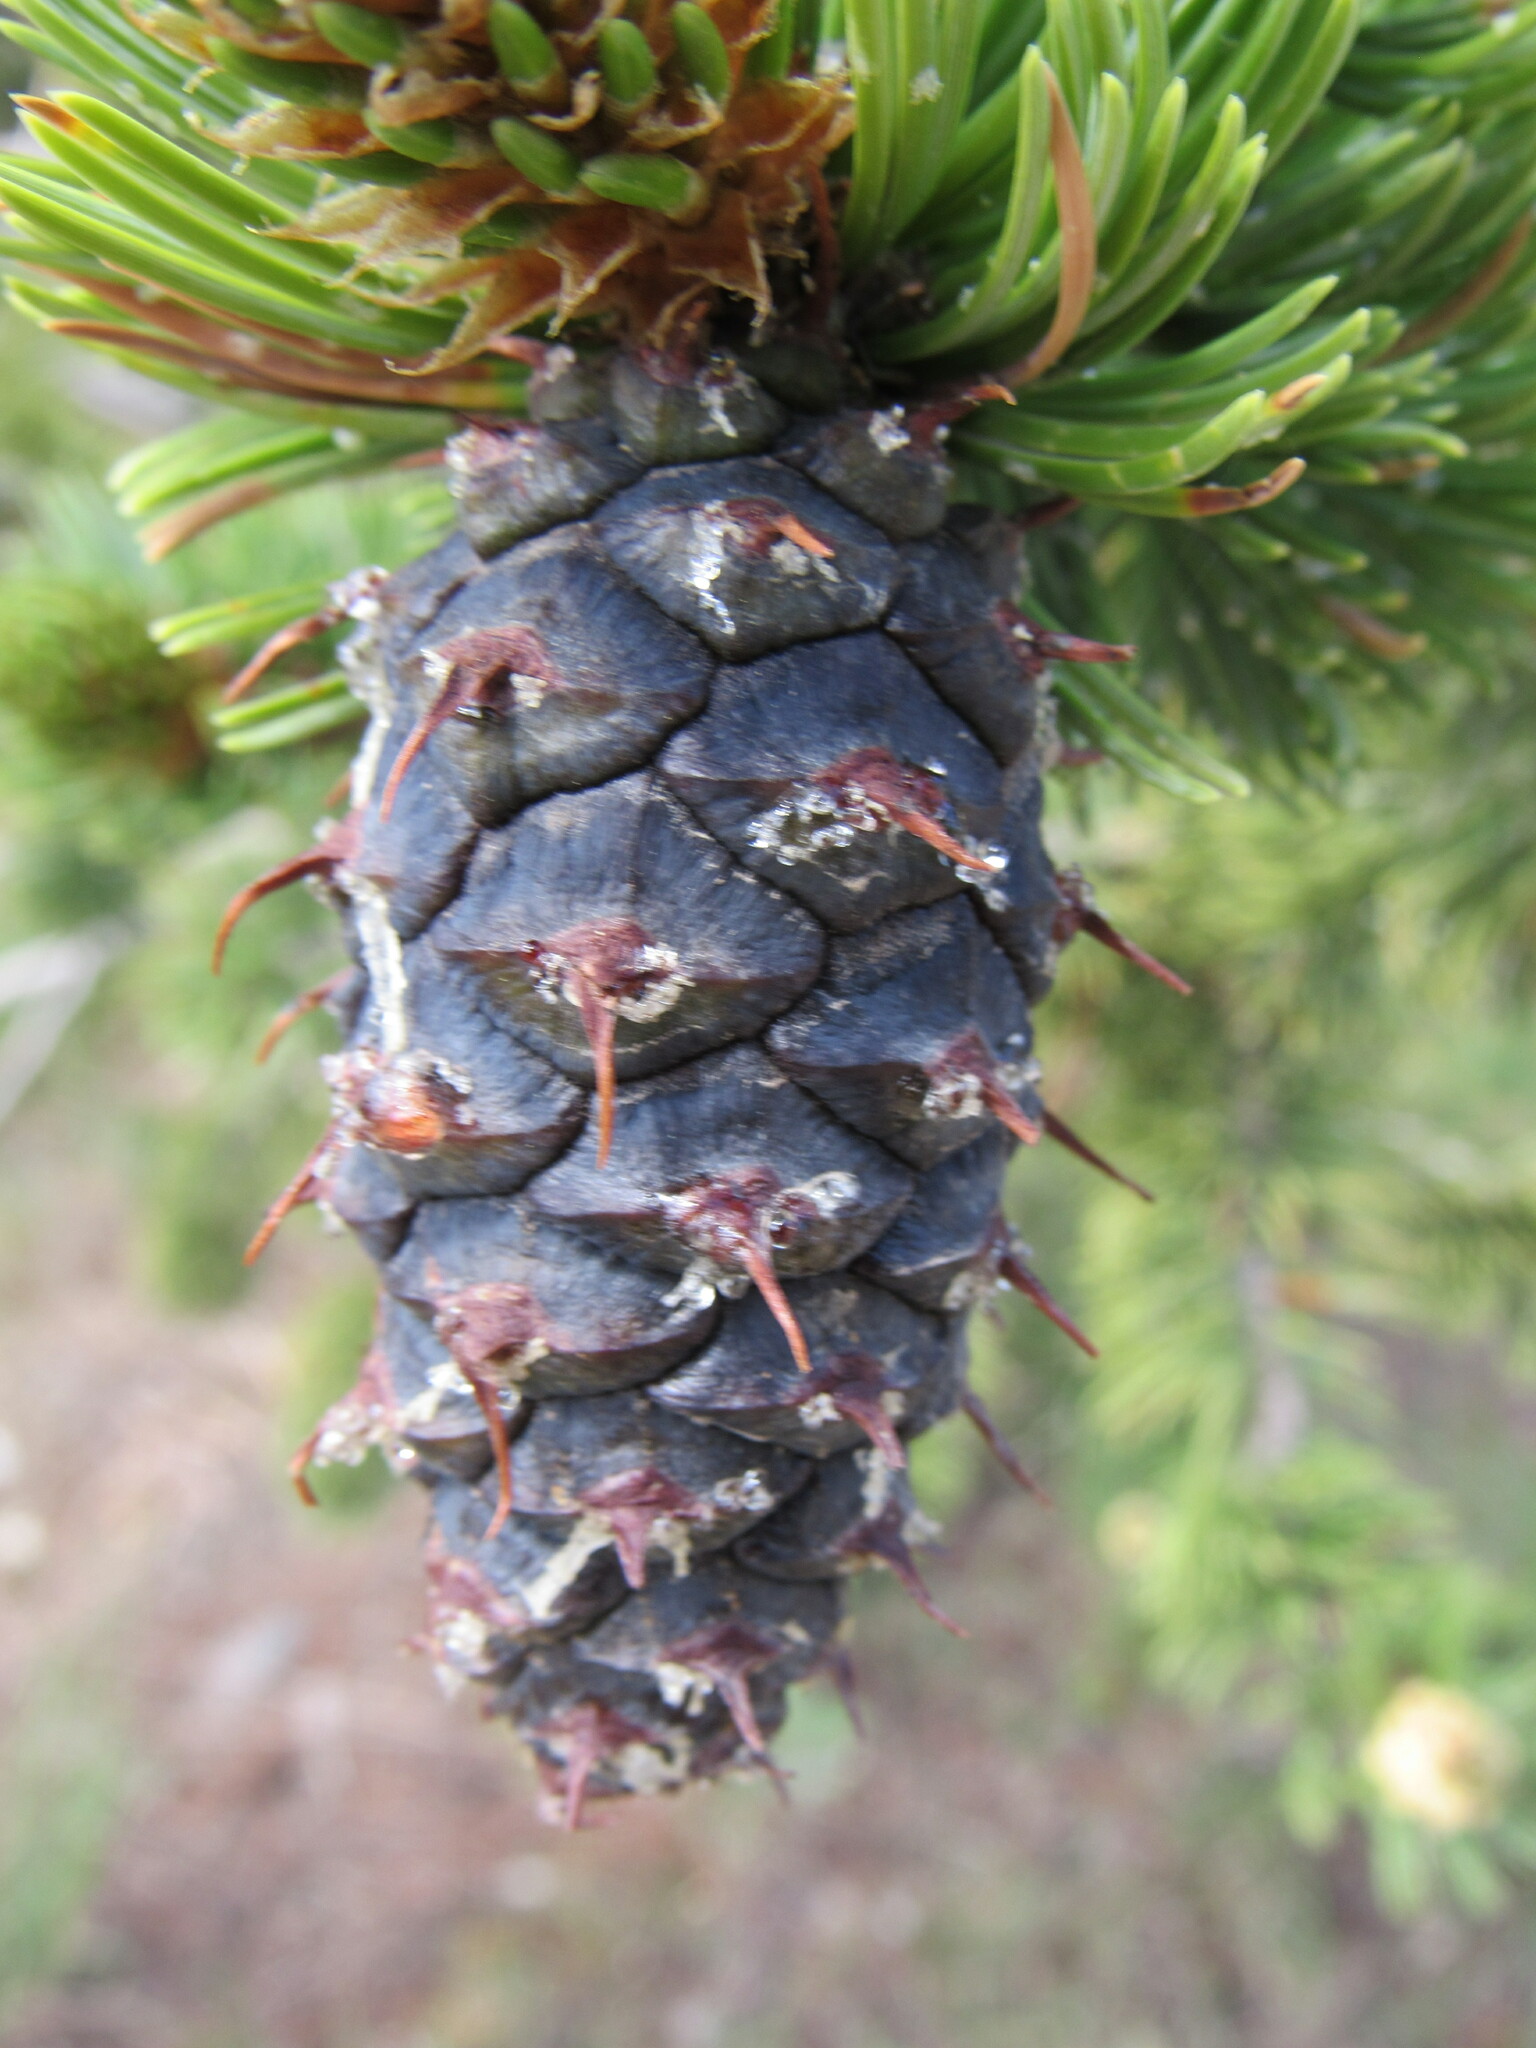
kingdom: Plantae
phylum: Tracheophyta
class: Pinopsida
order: Pinales
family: Pinaceae
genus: Pinus
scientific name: Pinus aristata
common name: Colorado bristlecone pine
